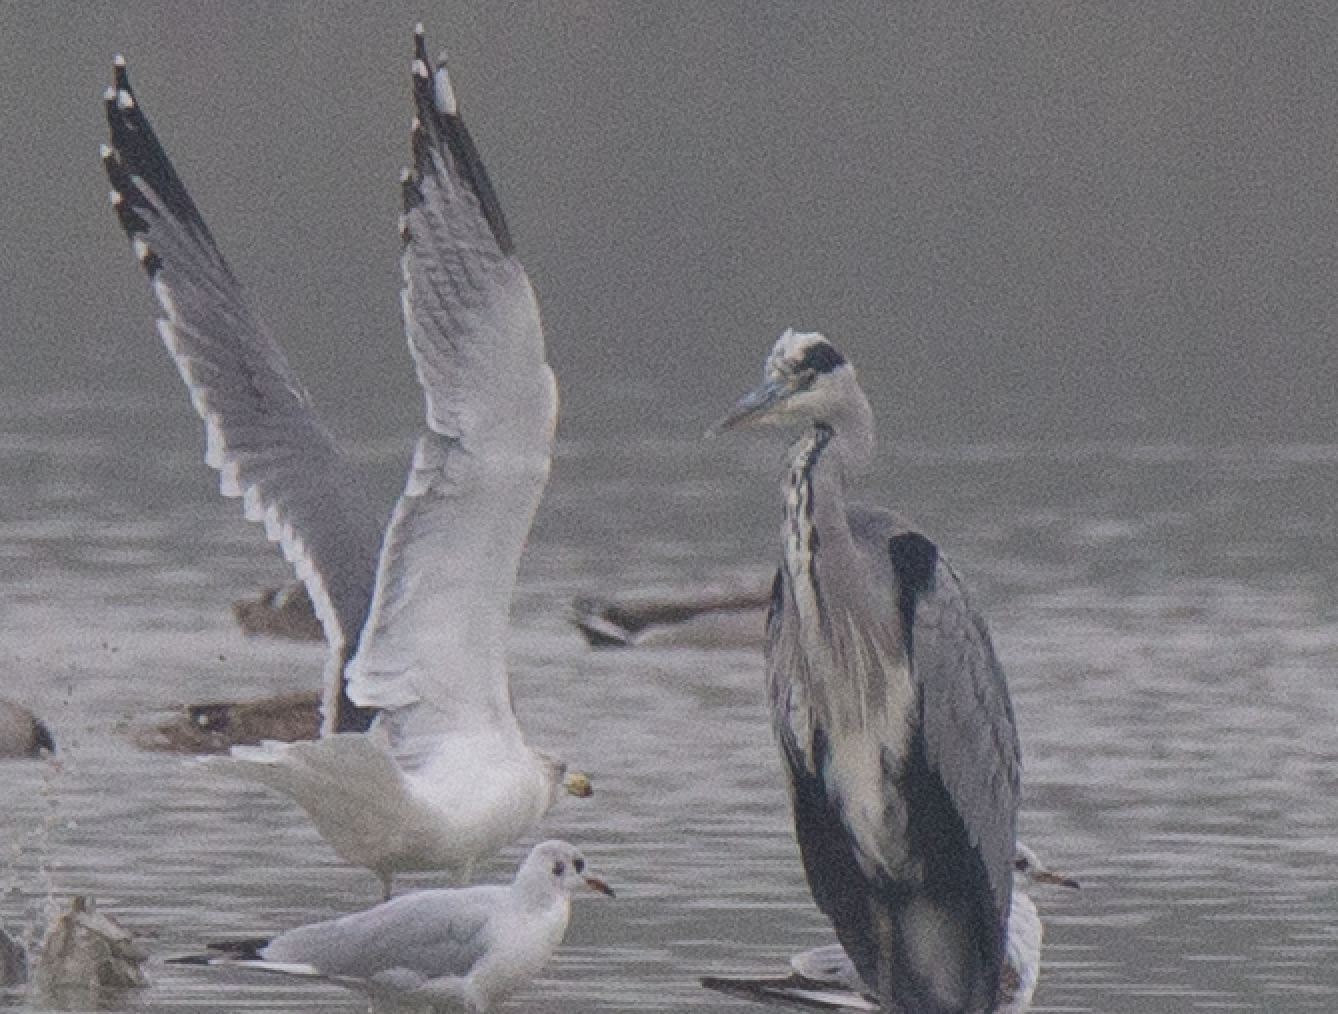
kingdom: Animalia
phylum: Chordata
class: Aves
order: Charadriiformes
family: Laridae
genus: Larus
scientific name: Larus michahellis
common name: Yellow-legged gull
